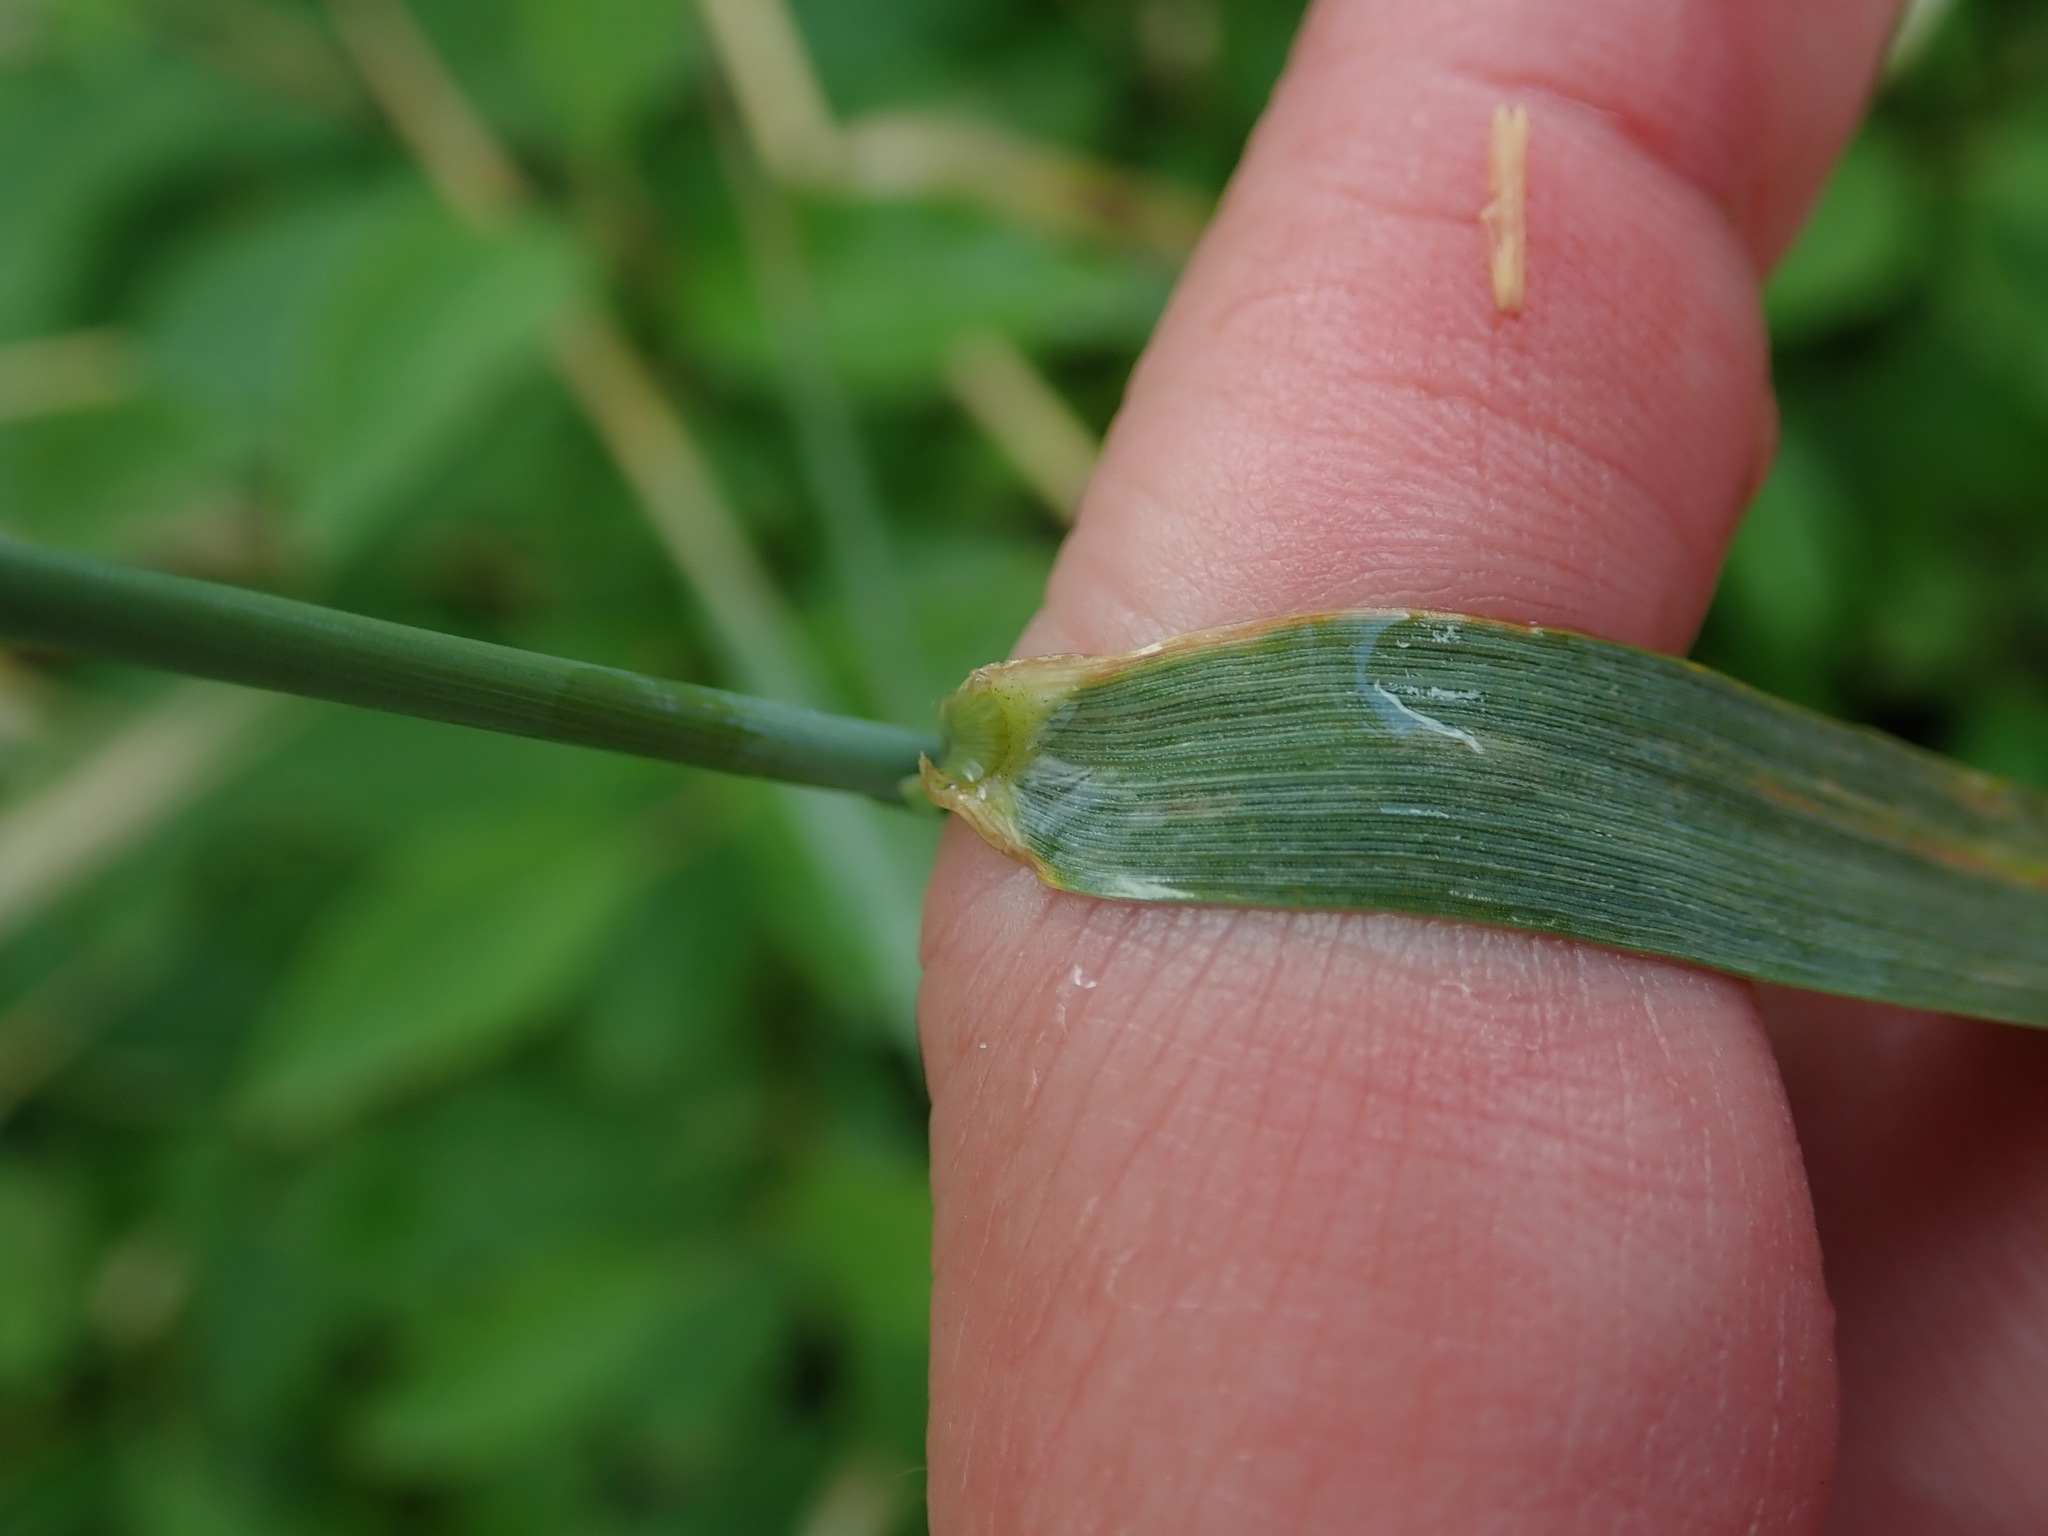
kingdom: Plantae
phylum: Tracheophyta
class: Liliopsida
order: Poales
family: Poaceae
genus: Elymus
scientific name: Elymus repens
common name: Quackgrass
